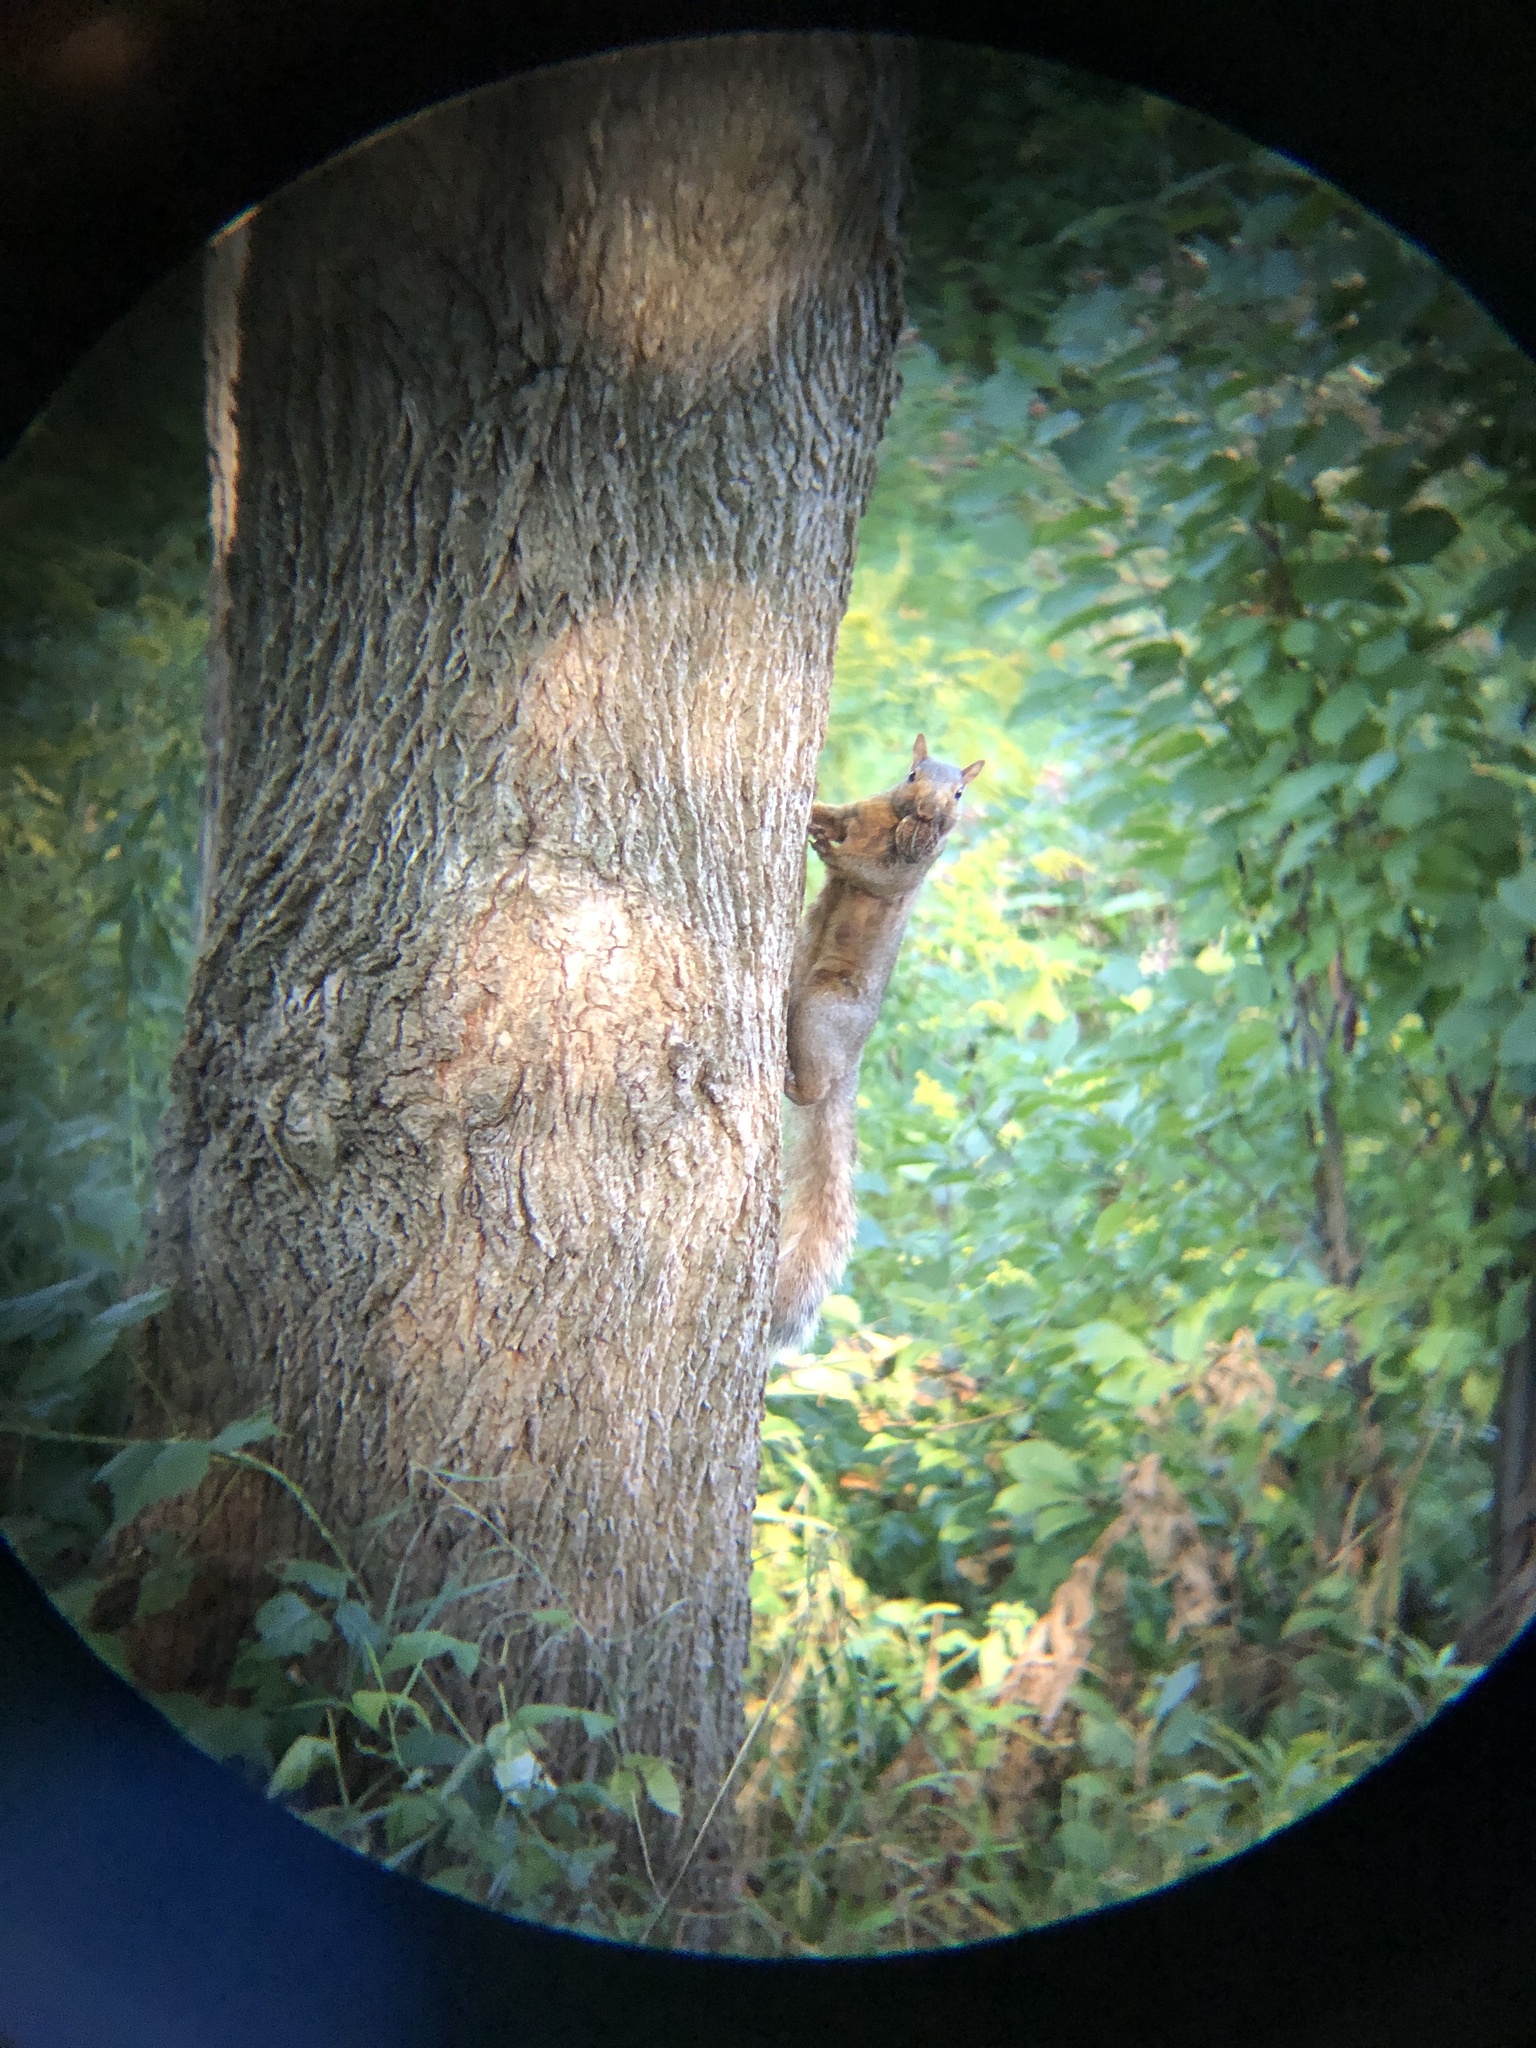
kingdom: Animalia
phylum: Chordata
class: Mammalia
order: Rodentia
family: Sciuridae
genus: Sciurus
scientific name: Sciurus carolinensis
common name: Eastern gray squirrel
